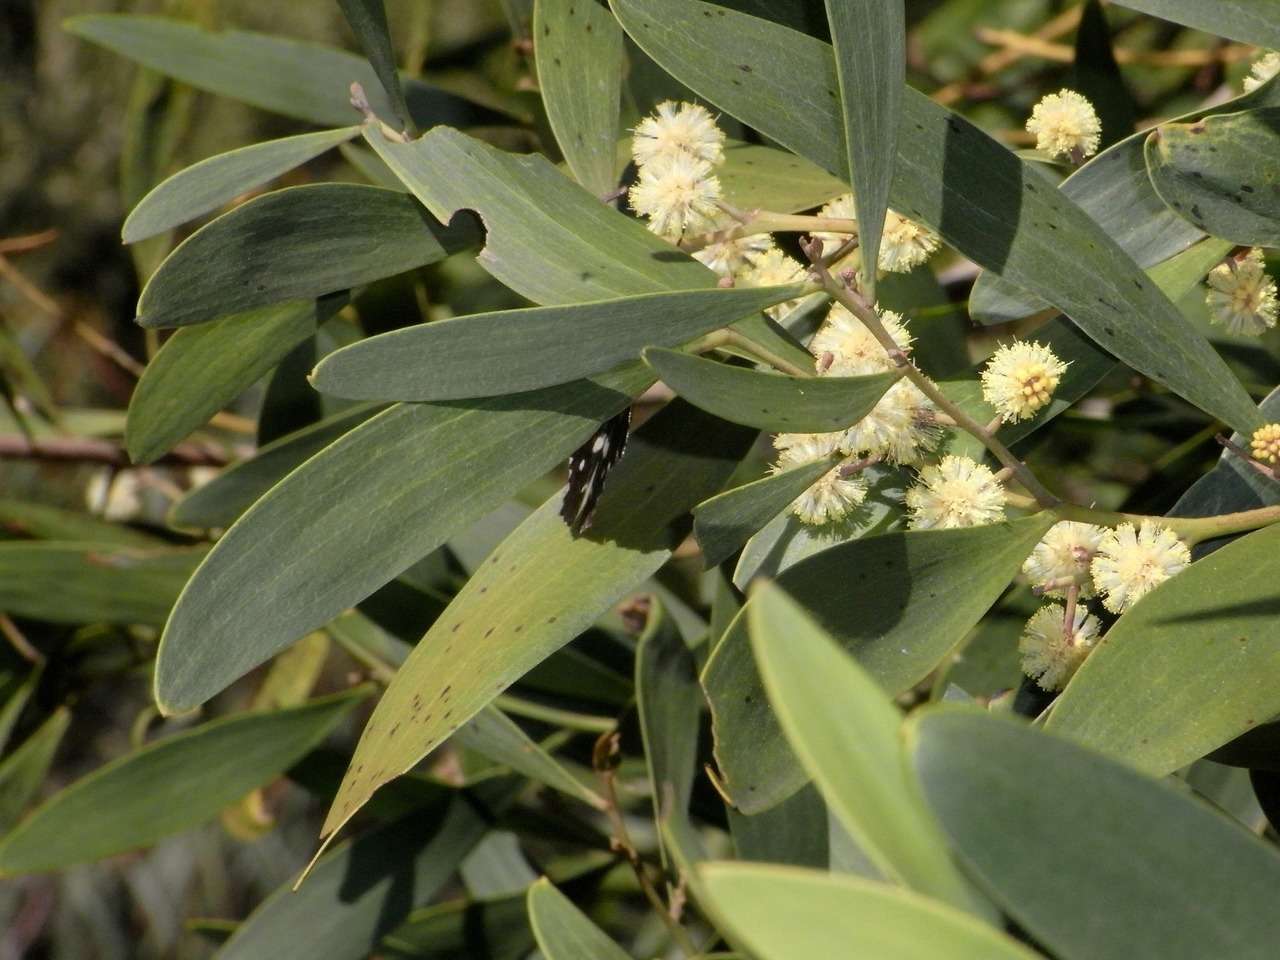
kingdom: Plantae
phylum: Tracheophyta
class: Magnoliopsida
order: Fabales
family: Fabaceae
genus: Acacia
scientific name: Acacia melanoxylon
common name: Blackwood
